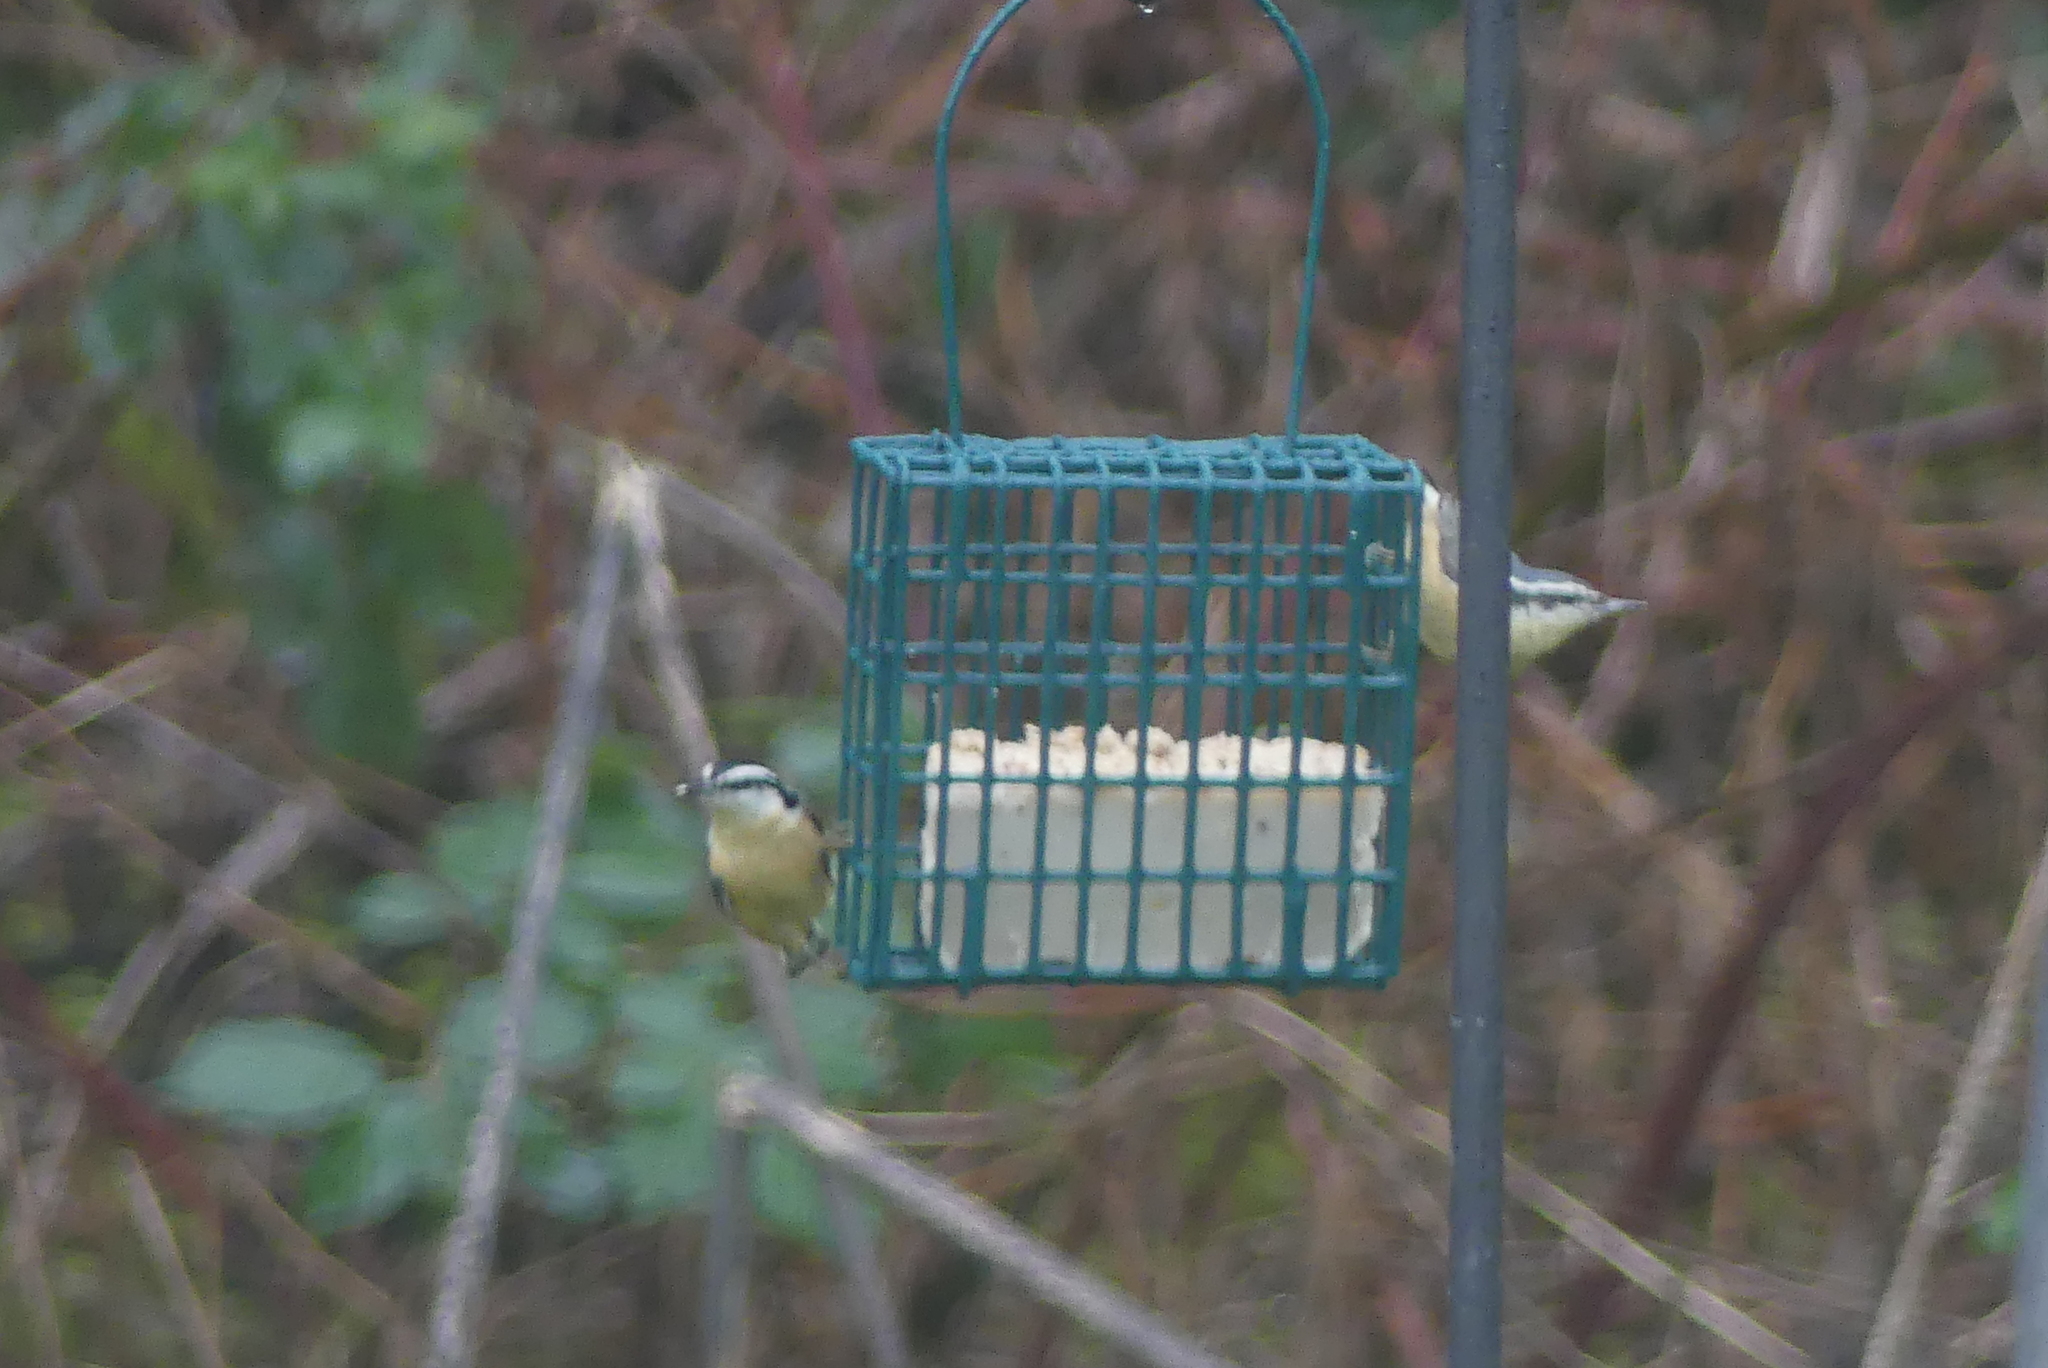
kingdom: Animalia
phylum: Chordata
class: Aves
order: Passeriformes
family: Sittidae
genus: Sitta
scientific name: Sitta canadensis
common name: Red-breasted nuthatch
